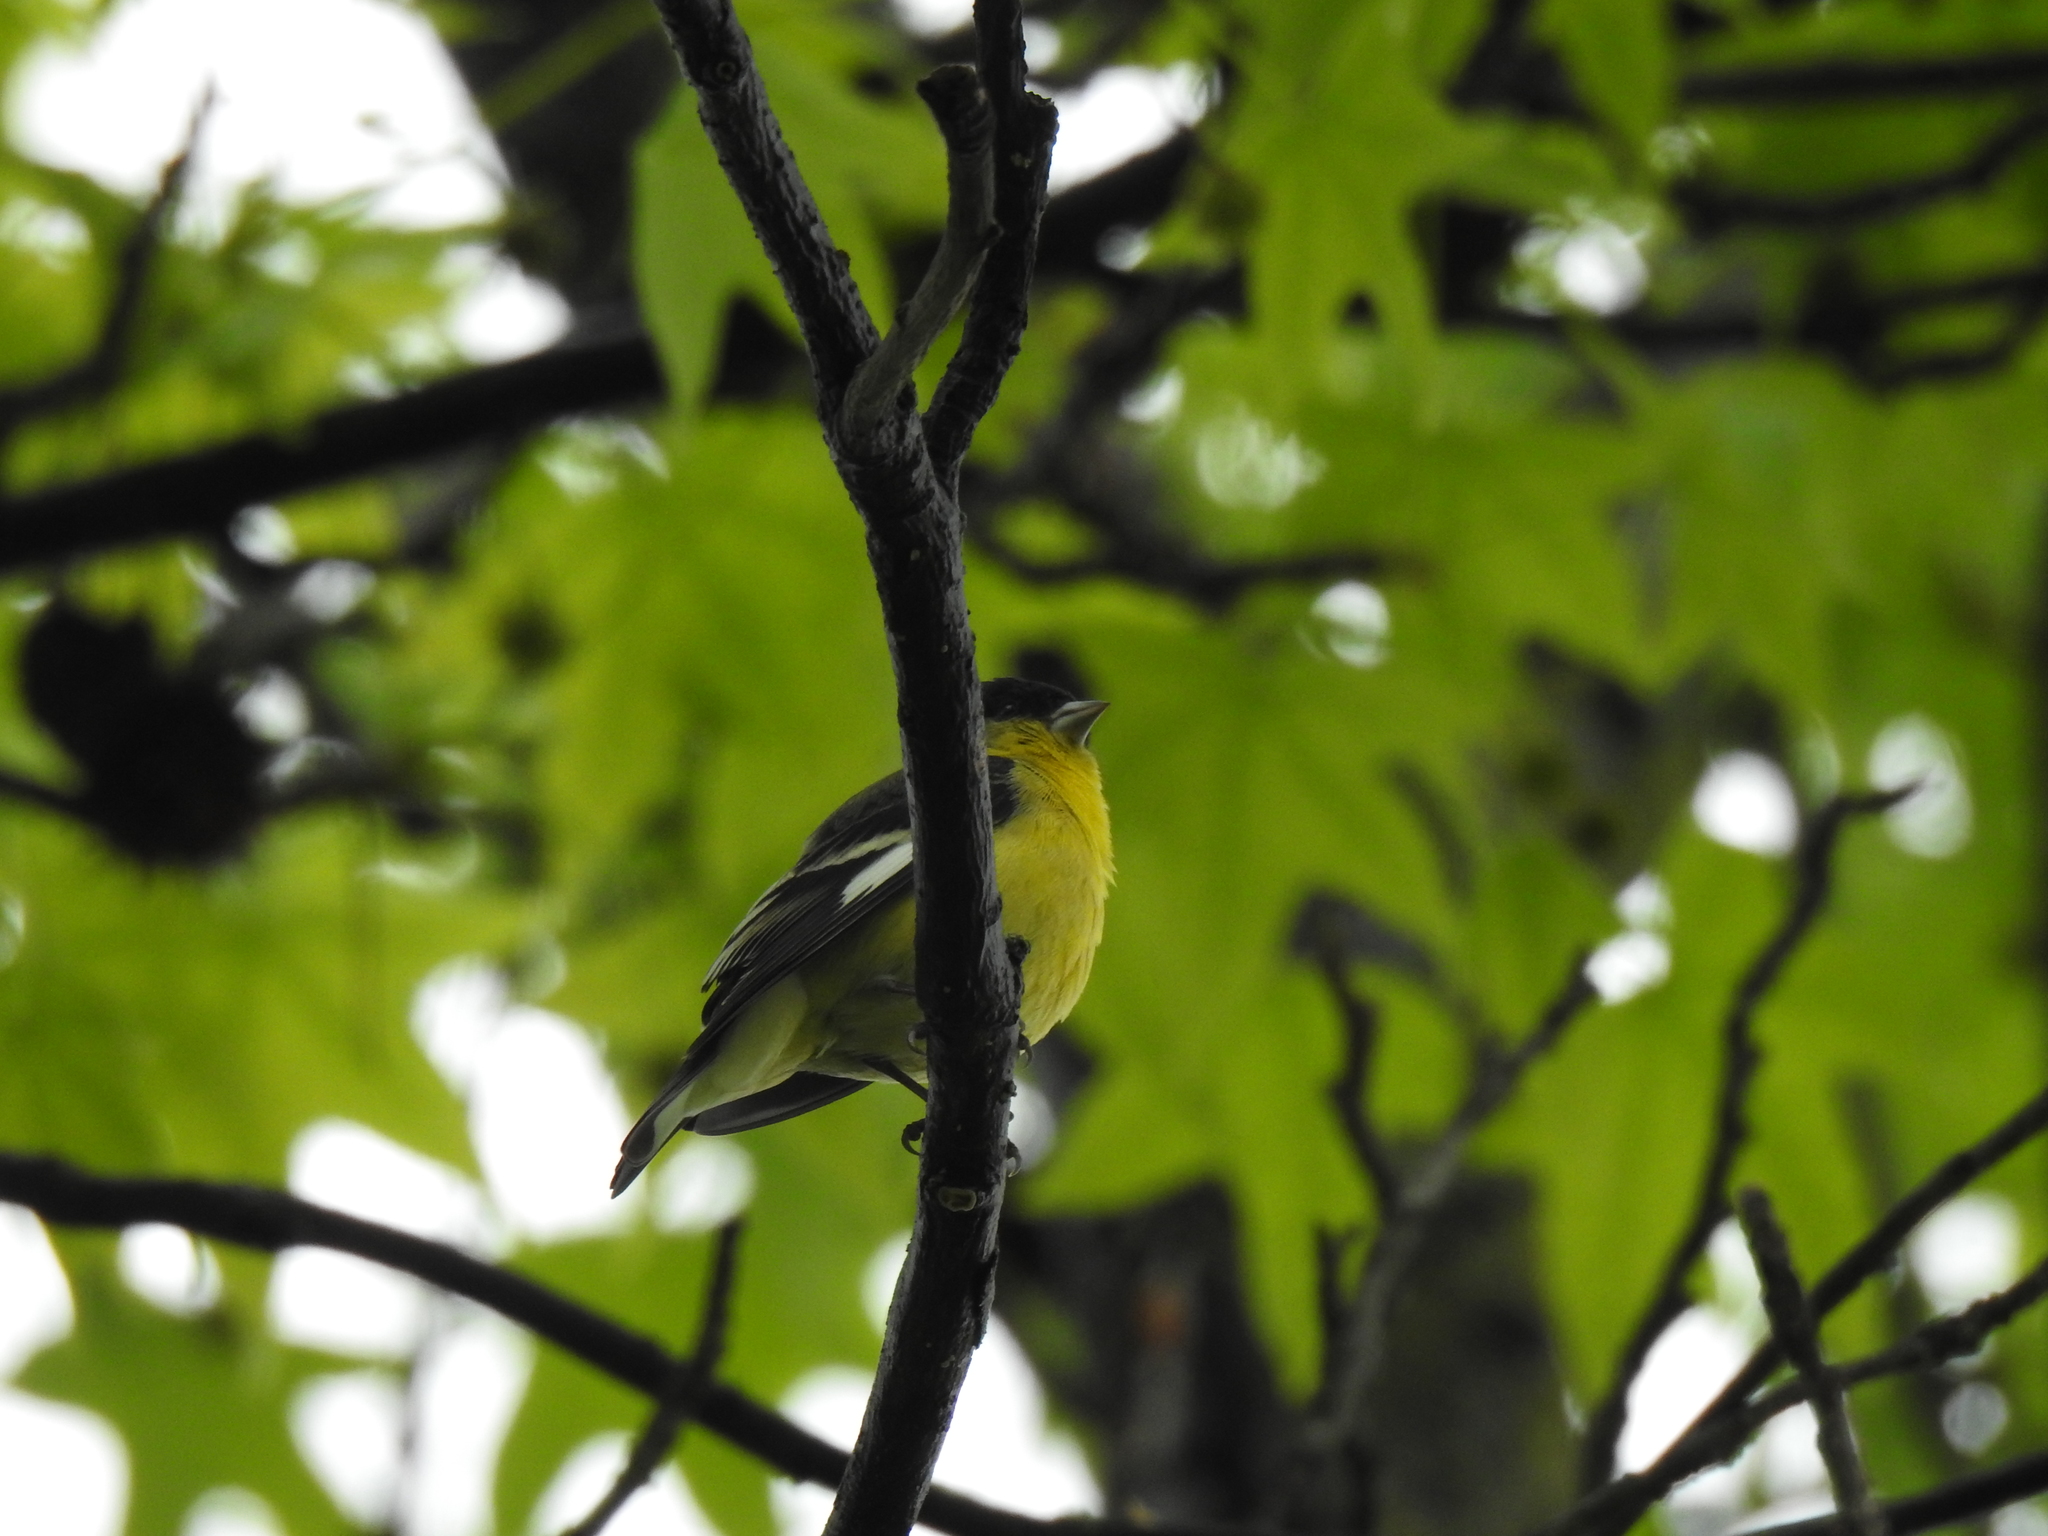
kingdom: Animalia
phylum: Chordata
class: Aves
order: Passeriformes
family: Fringillidae
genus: Spinus
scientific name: Spinus psaltria
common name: Lesser goldfinch
